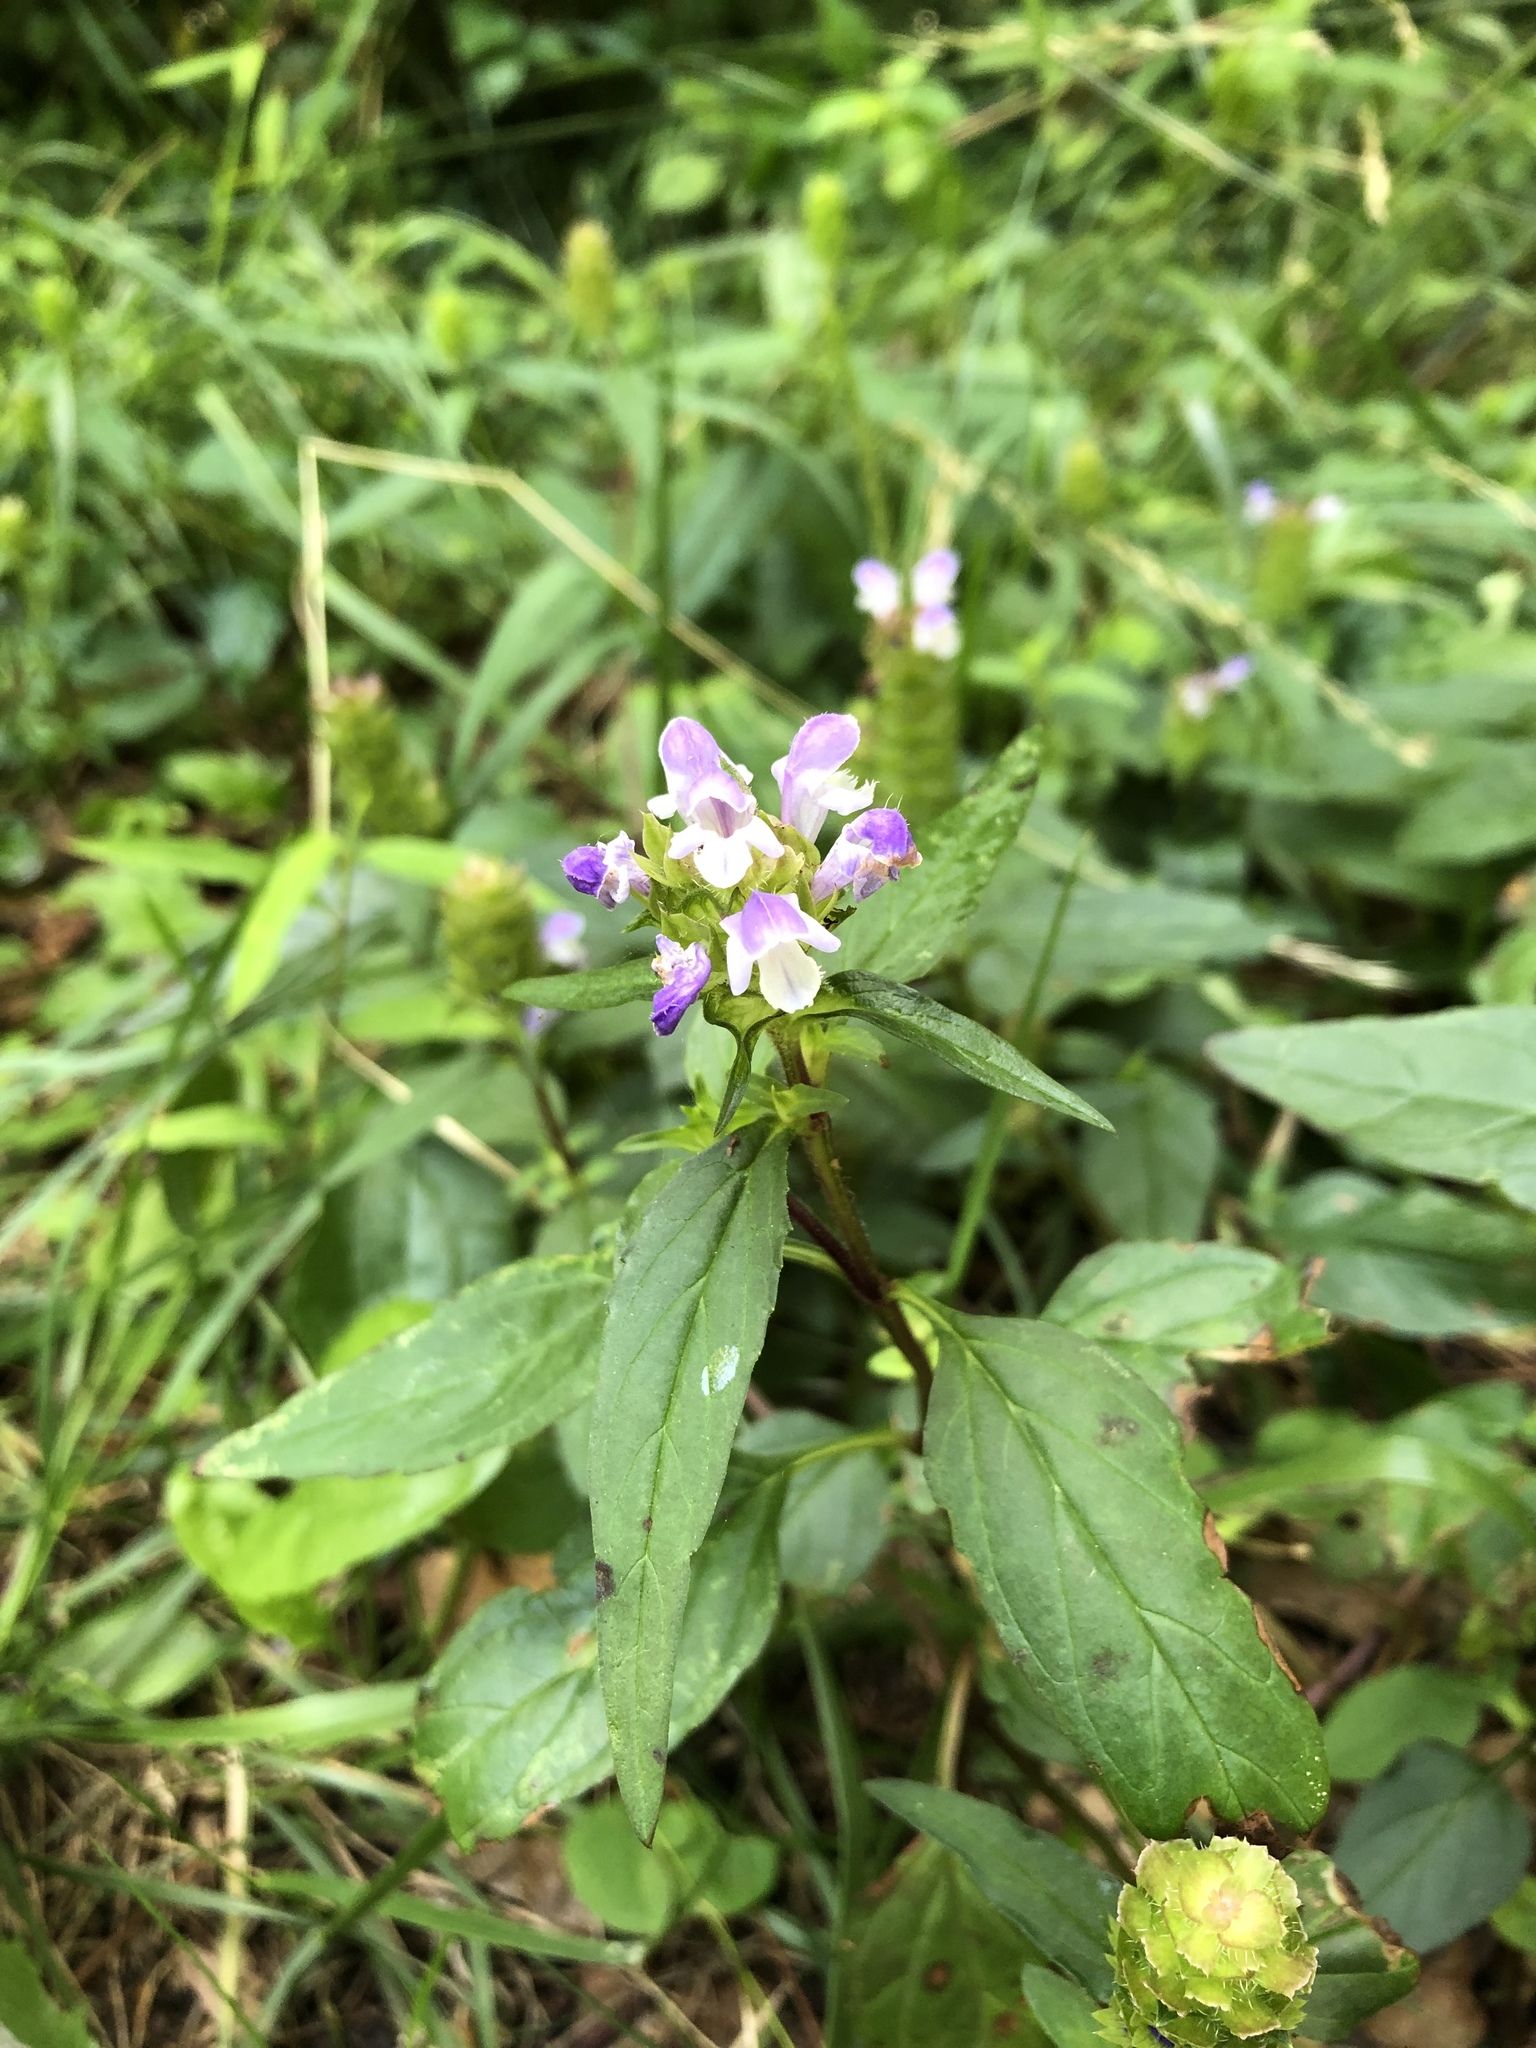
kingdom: Plantae
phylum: Tracheophyta
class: Magnoliopsida
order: Lamiales
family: Lamiaceae
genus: Prunella
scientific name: Prunella vulgaris
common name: Heal-all
